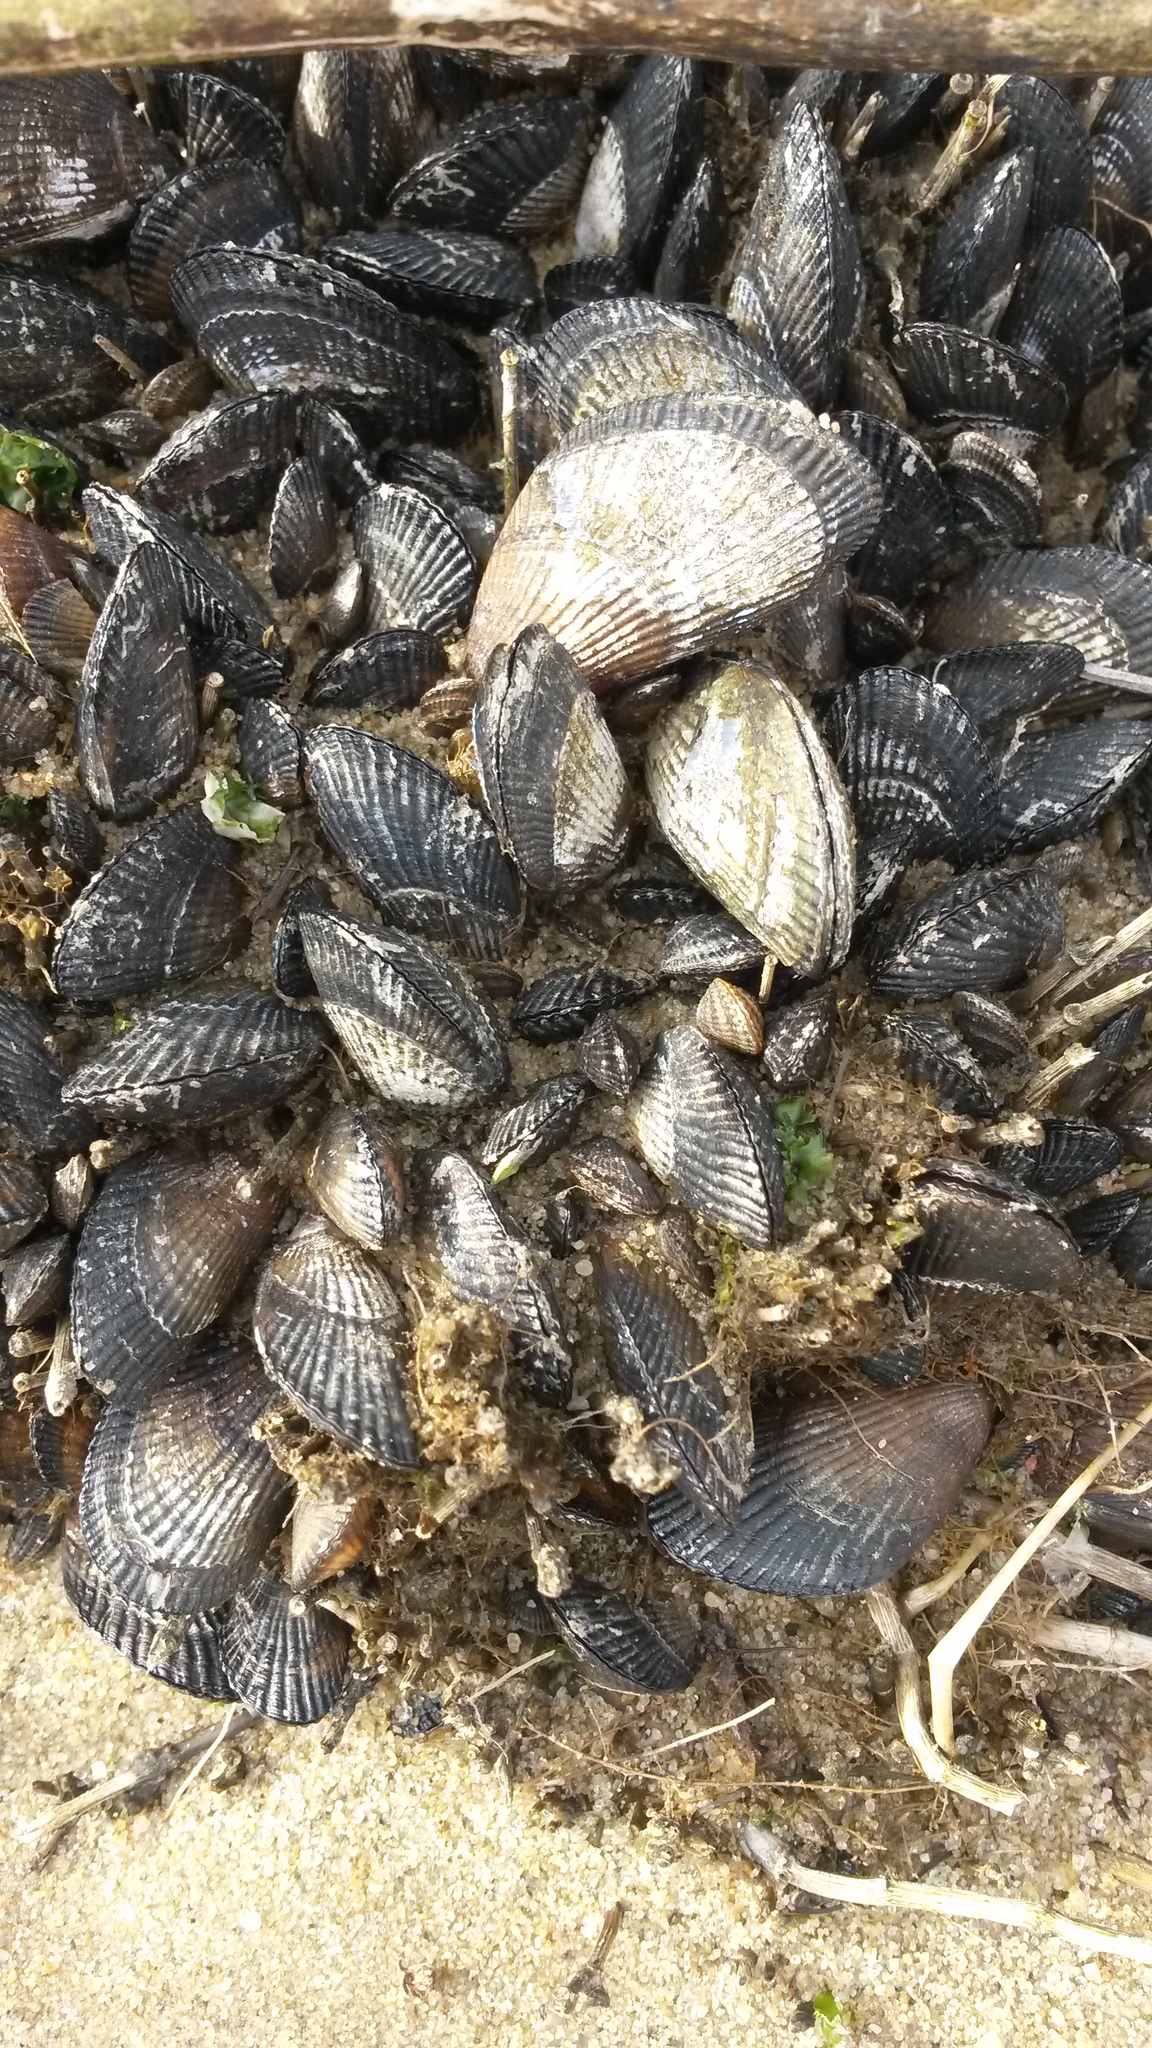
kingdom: Animalia
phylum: Mollusca
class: Bivalvia
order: Mytilida
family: Mytilidae
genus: Geukensia
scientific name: Geukensia demissa
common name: Ribbed mussel
